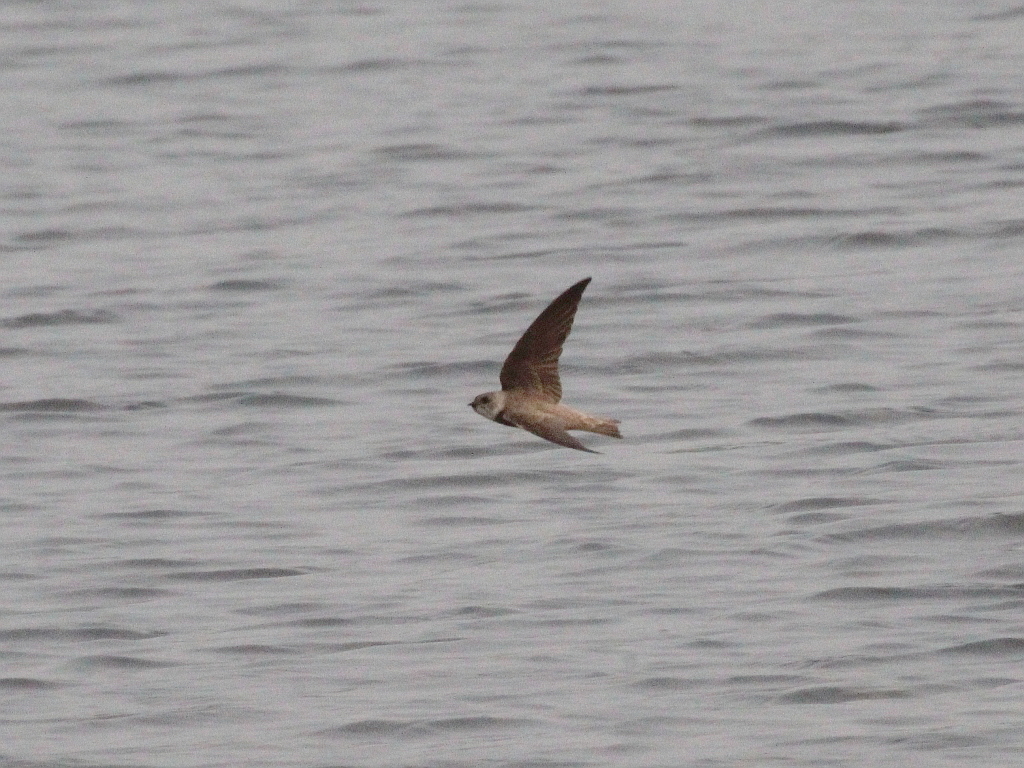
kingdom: Animalia
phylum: Chordata
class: Aves
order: Passeriformes
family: Hirundinidae
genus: Riparia
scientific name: Riparia diluta
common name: Pale martin
